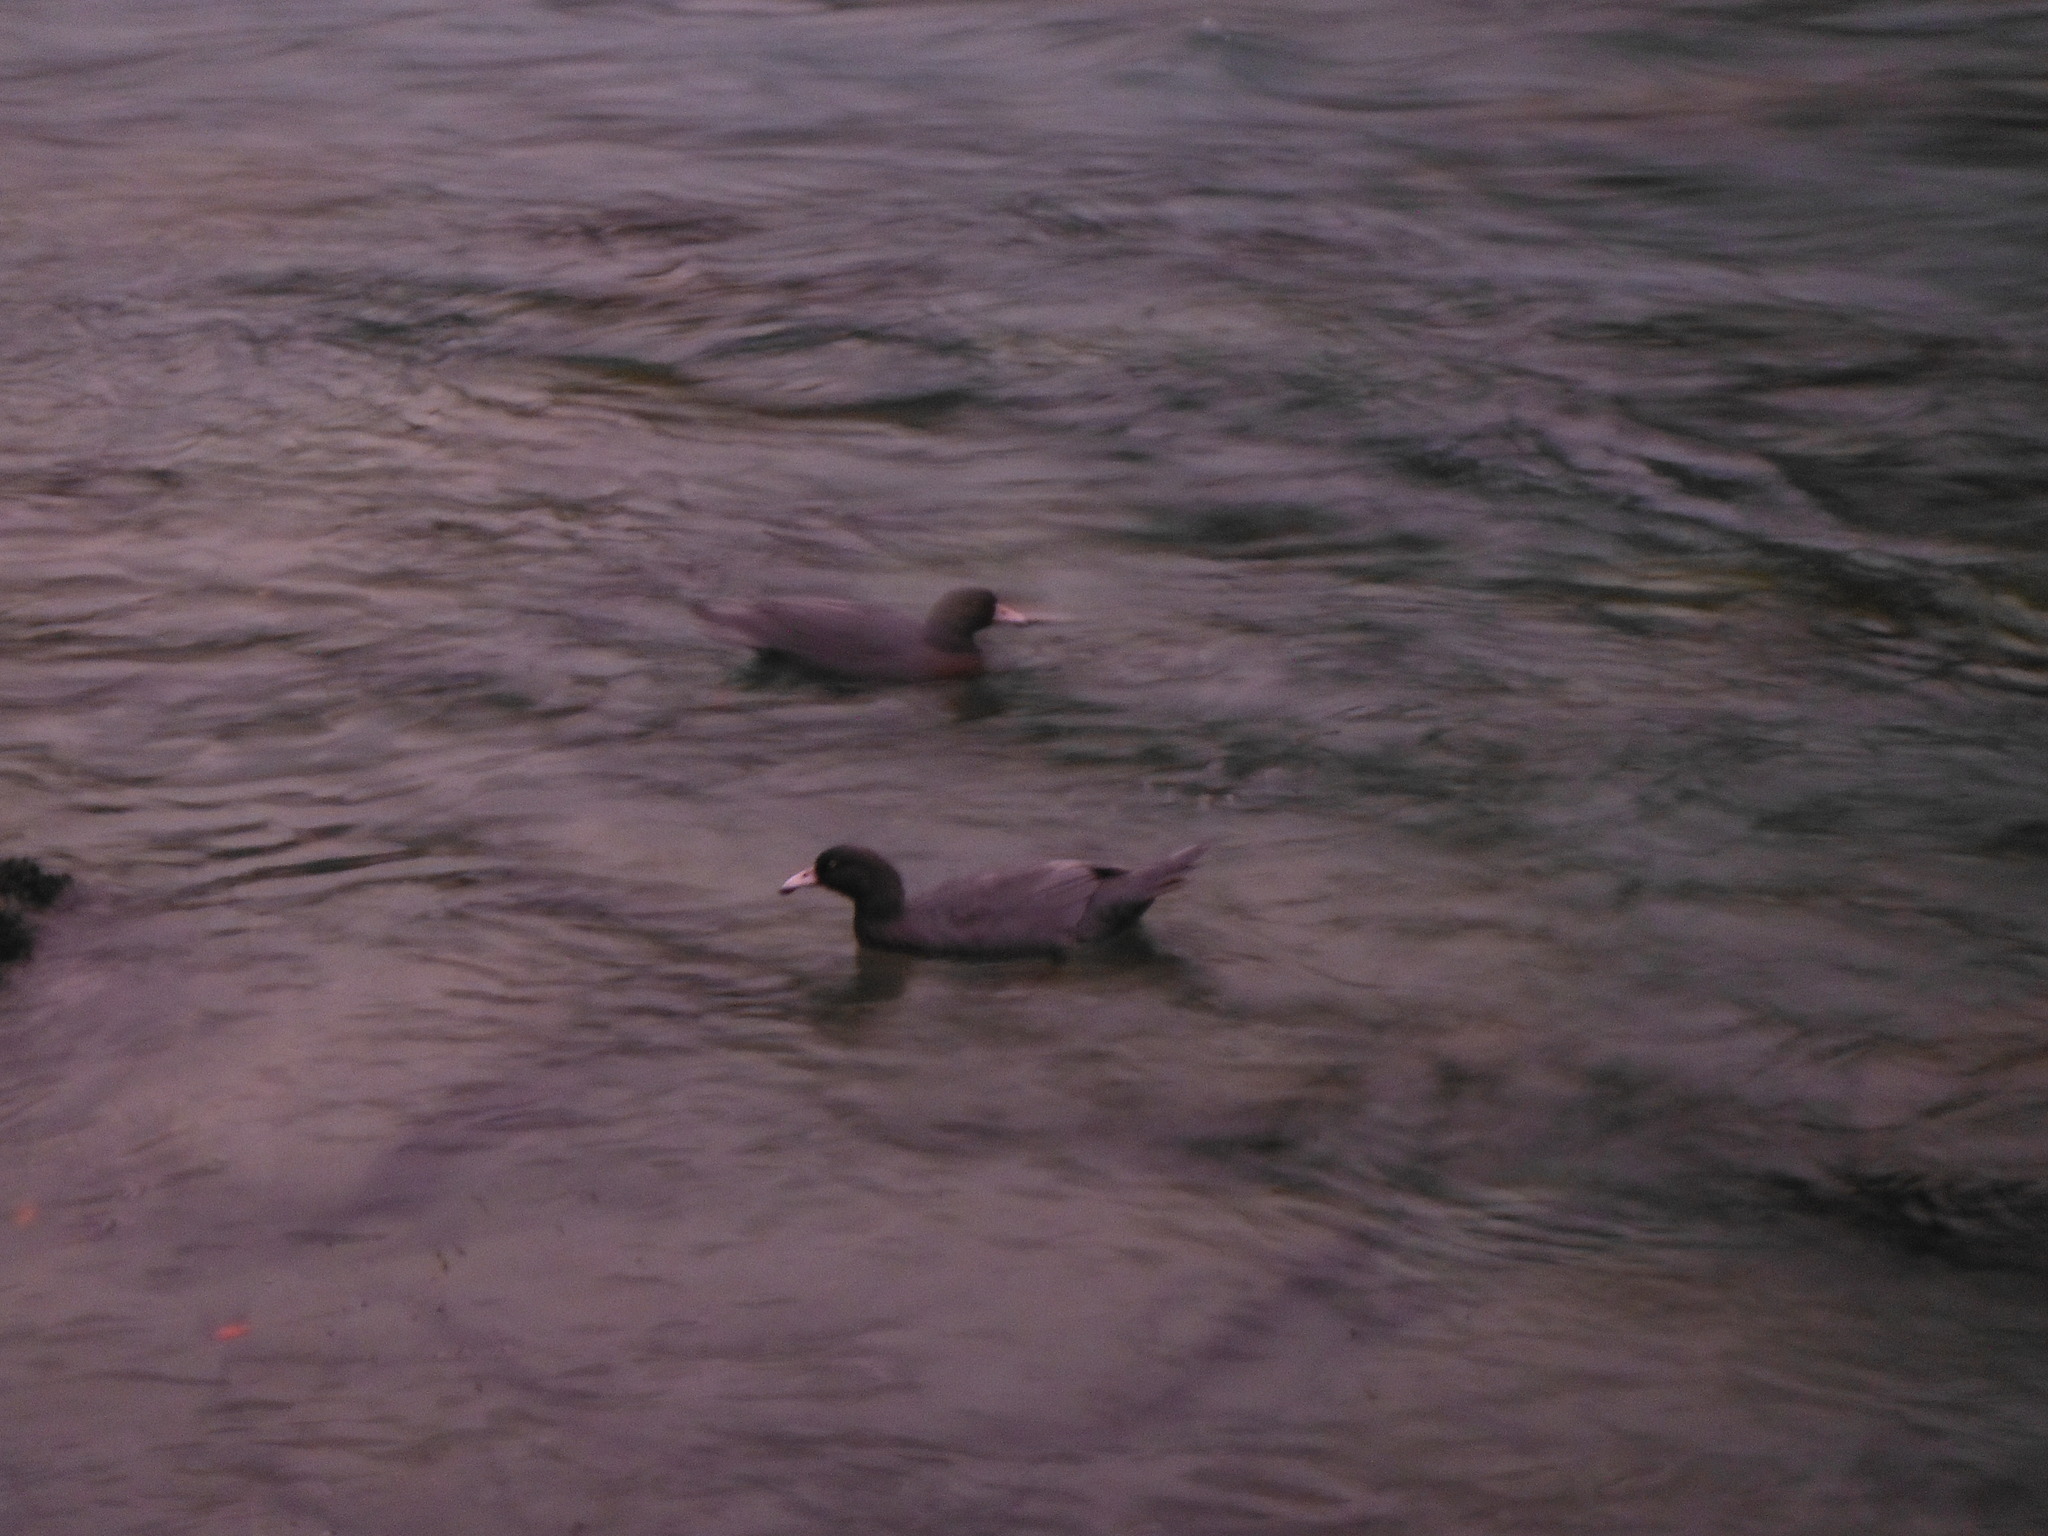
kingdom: Animalia
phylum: Chordata
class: Aves
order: Anseriformes
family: Anatidae
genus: Hymenolaimus
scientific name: Hymenolaimus malacorhynchos
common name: Blue duck
